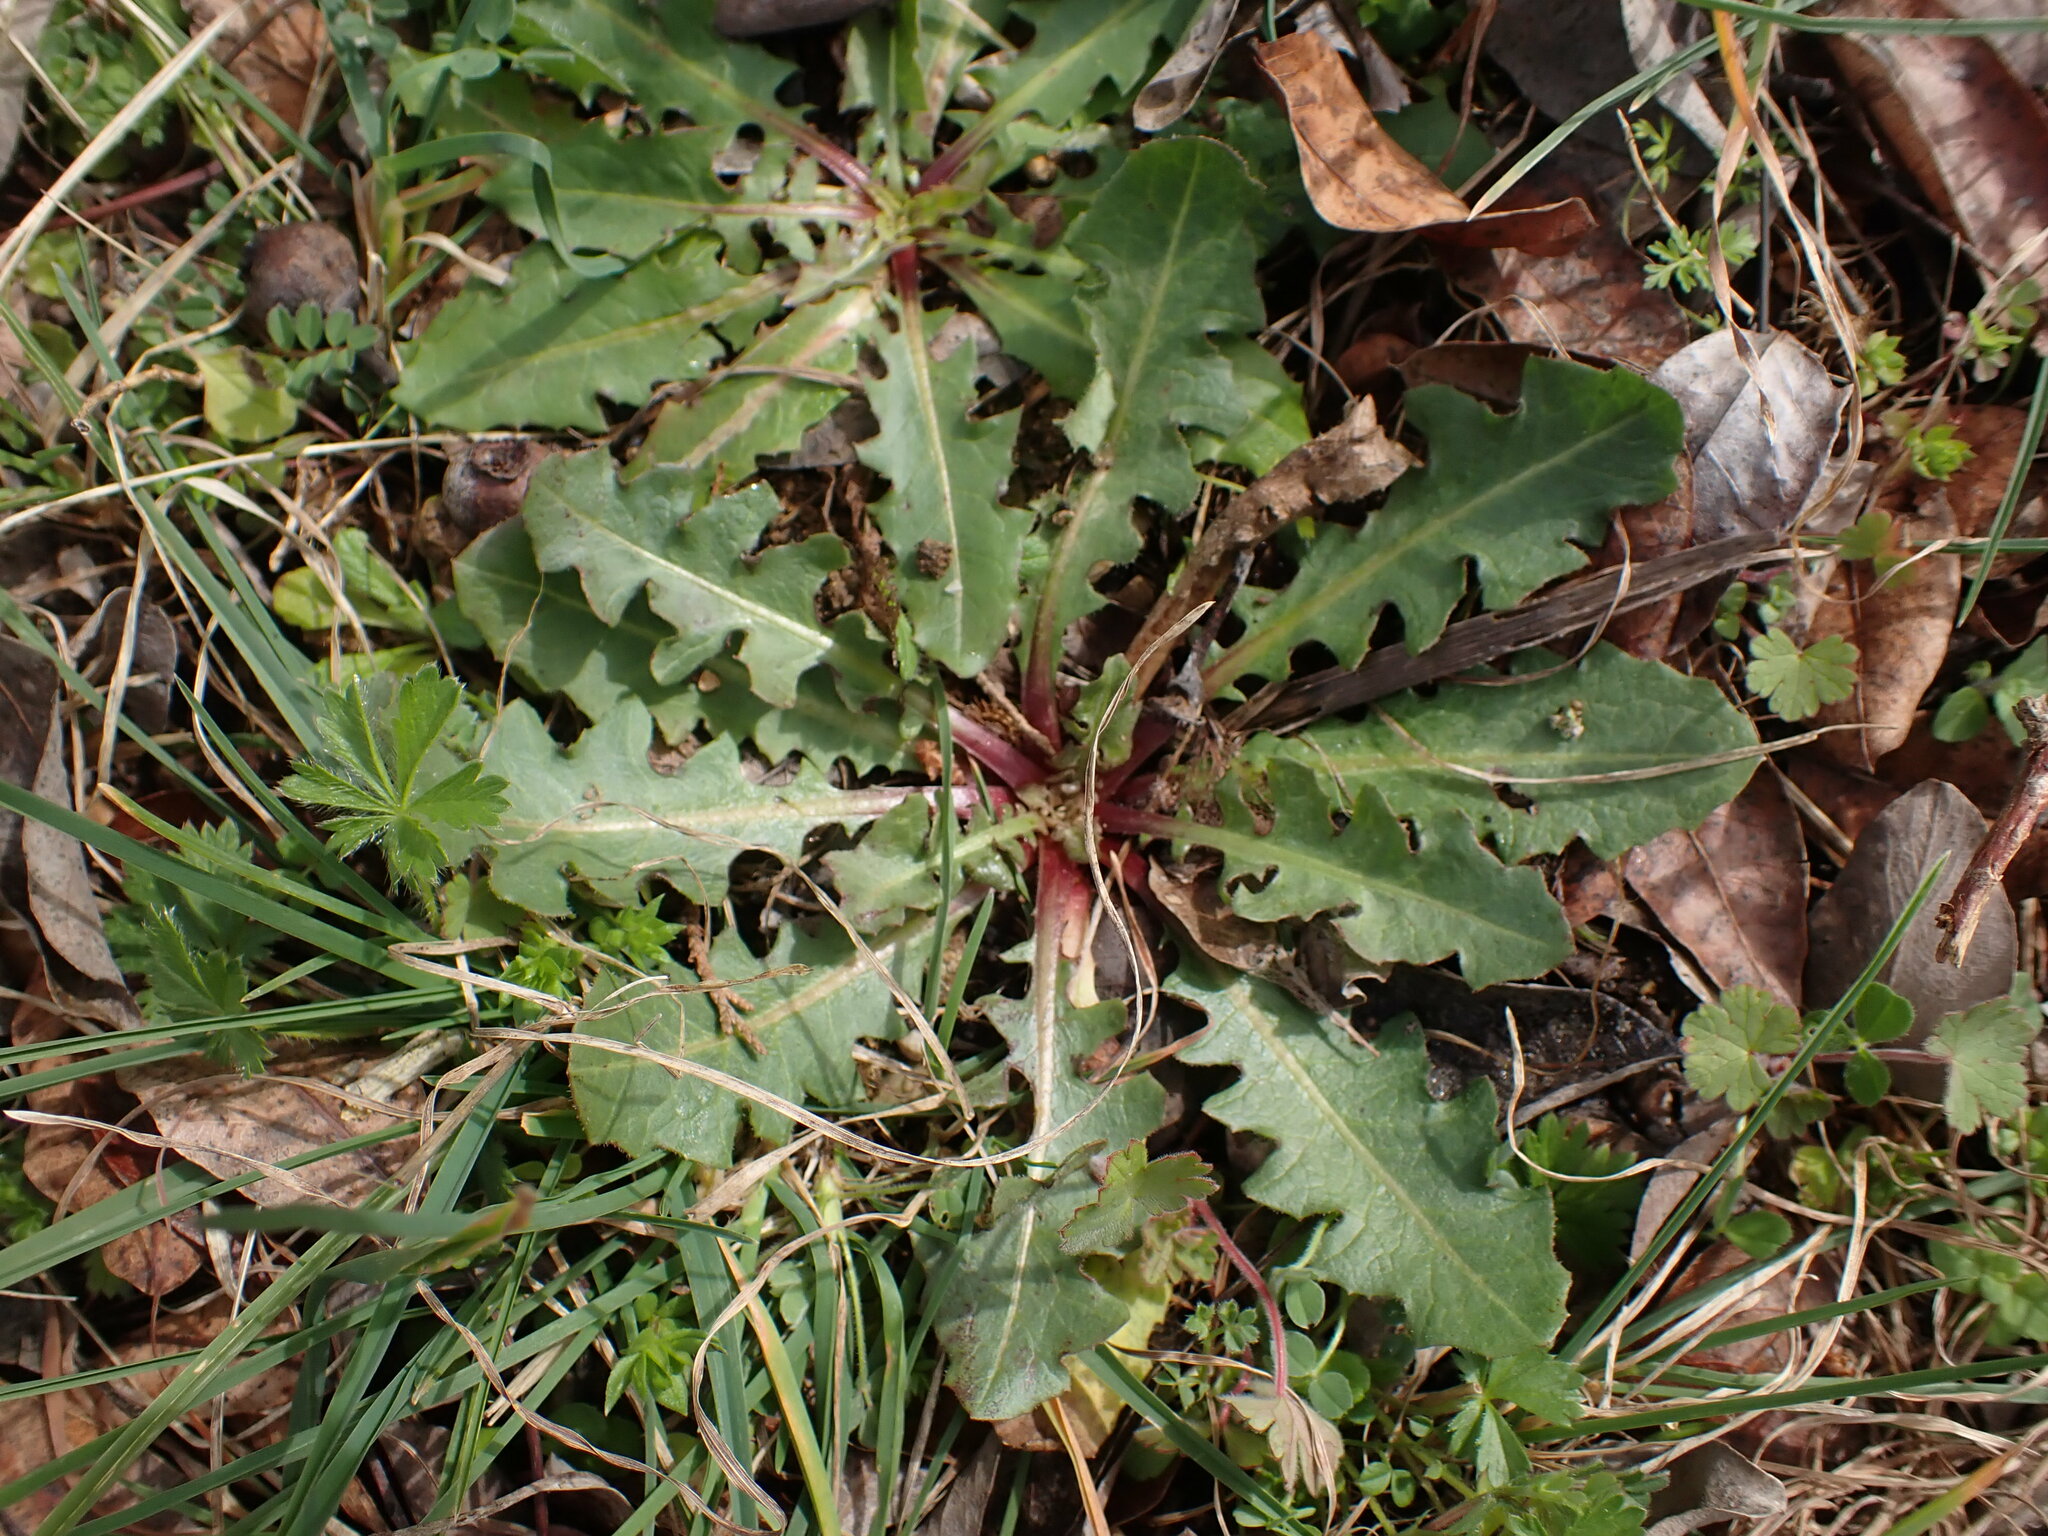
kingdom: Plantae
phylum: Tracheophyta
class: Magnoliopsida
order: Asterales
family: Asteraceae
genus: Crepis
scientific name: Crepis vesicaria
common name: Beaked hawksbeard
